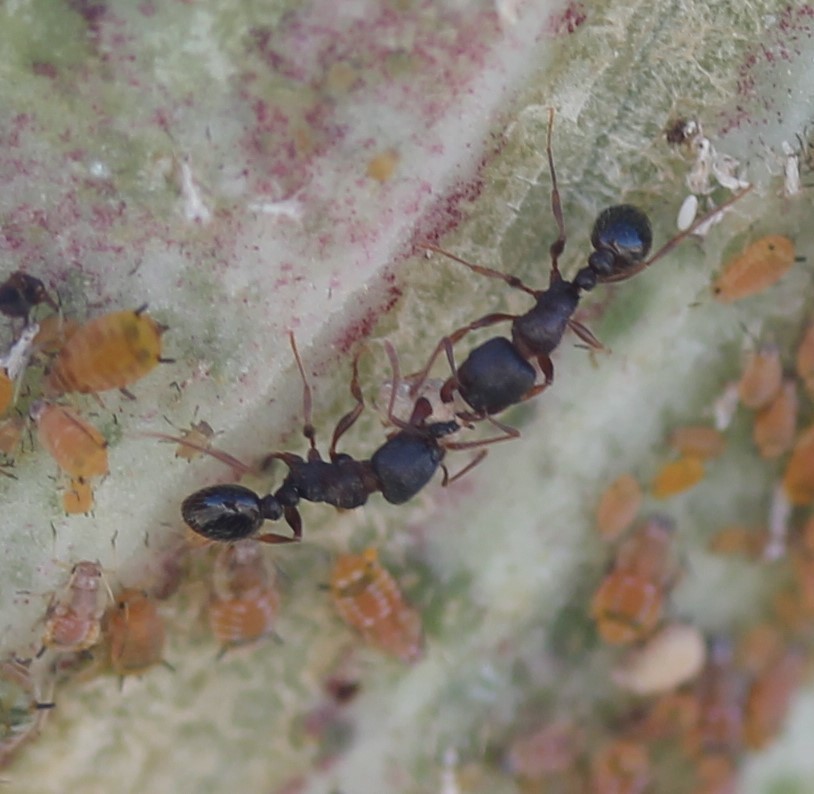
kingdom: Animalia
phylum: Arthropoda
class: Insecta
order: Hymenoptera
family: Formicidae
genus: Tetramorium
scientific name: Tetramorium immigrans
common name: Pavement ant
